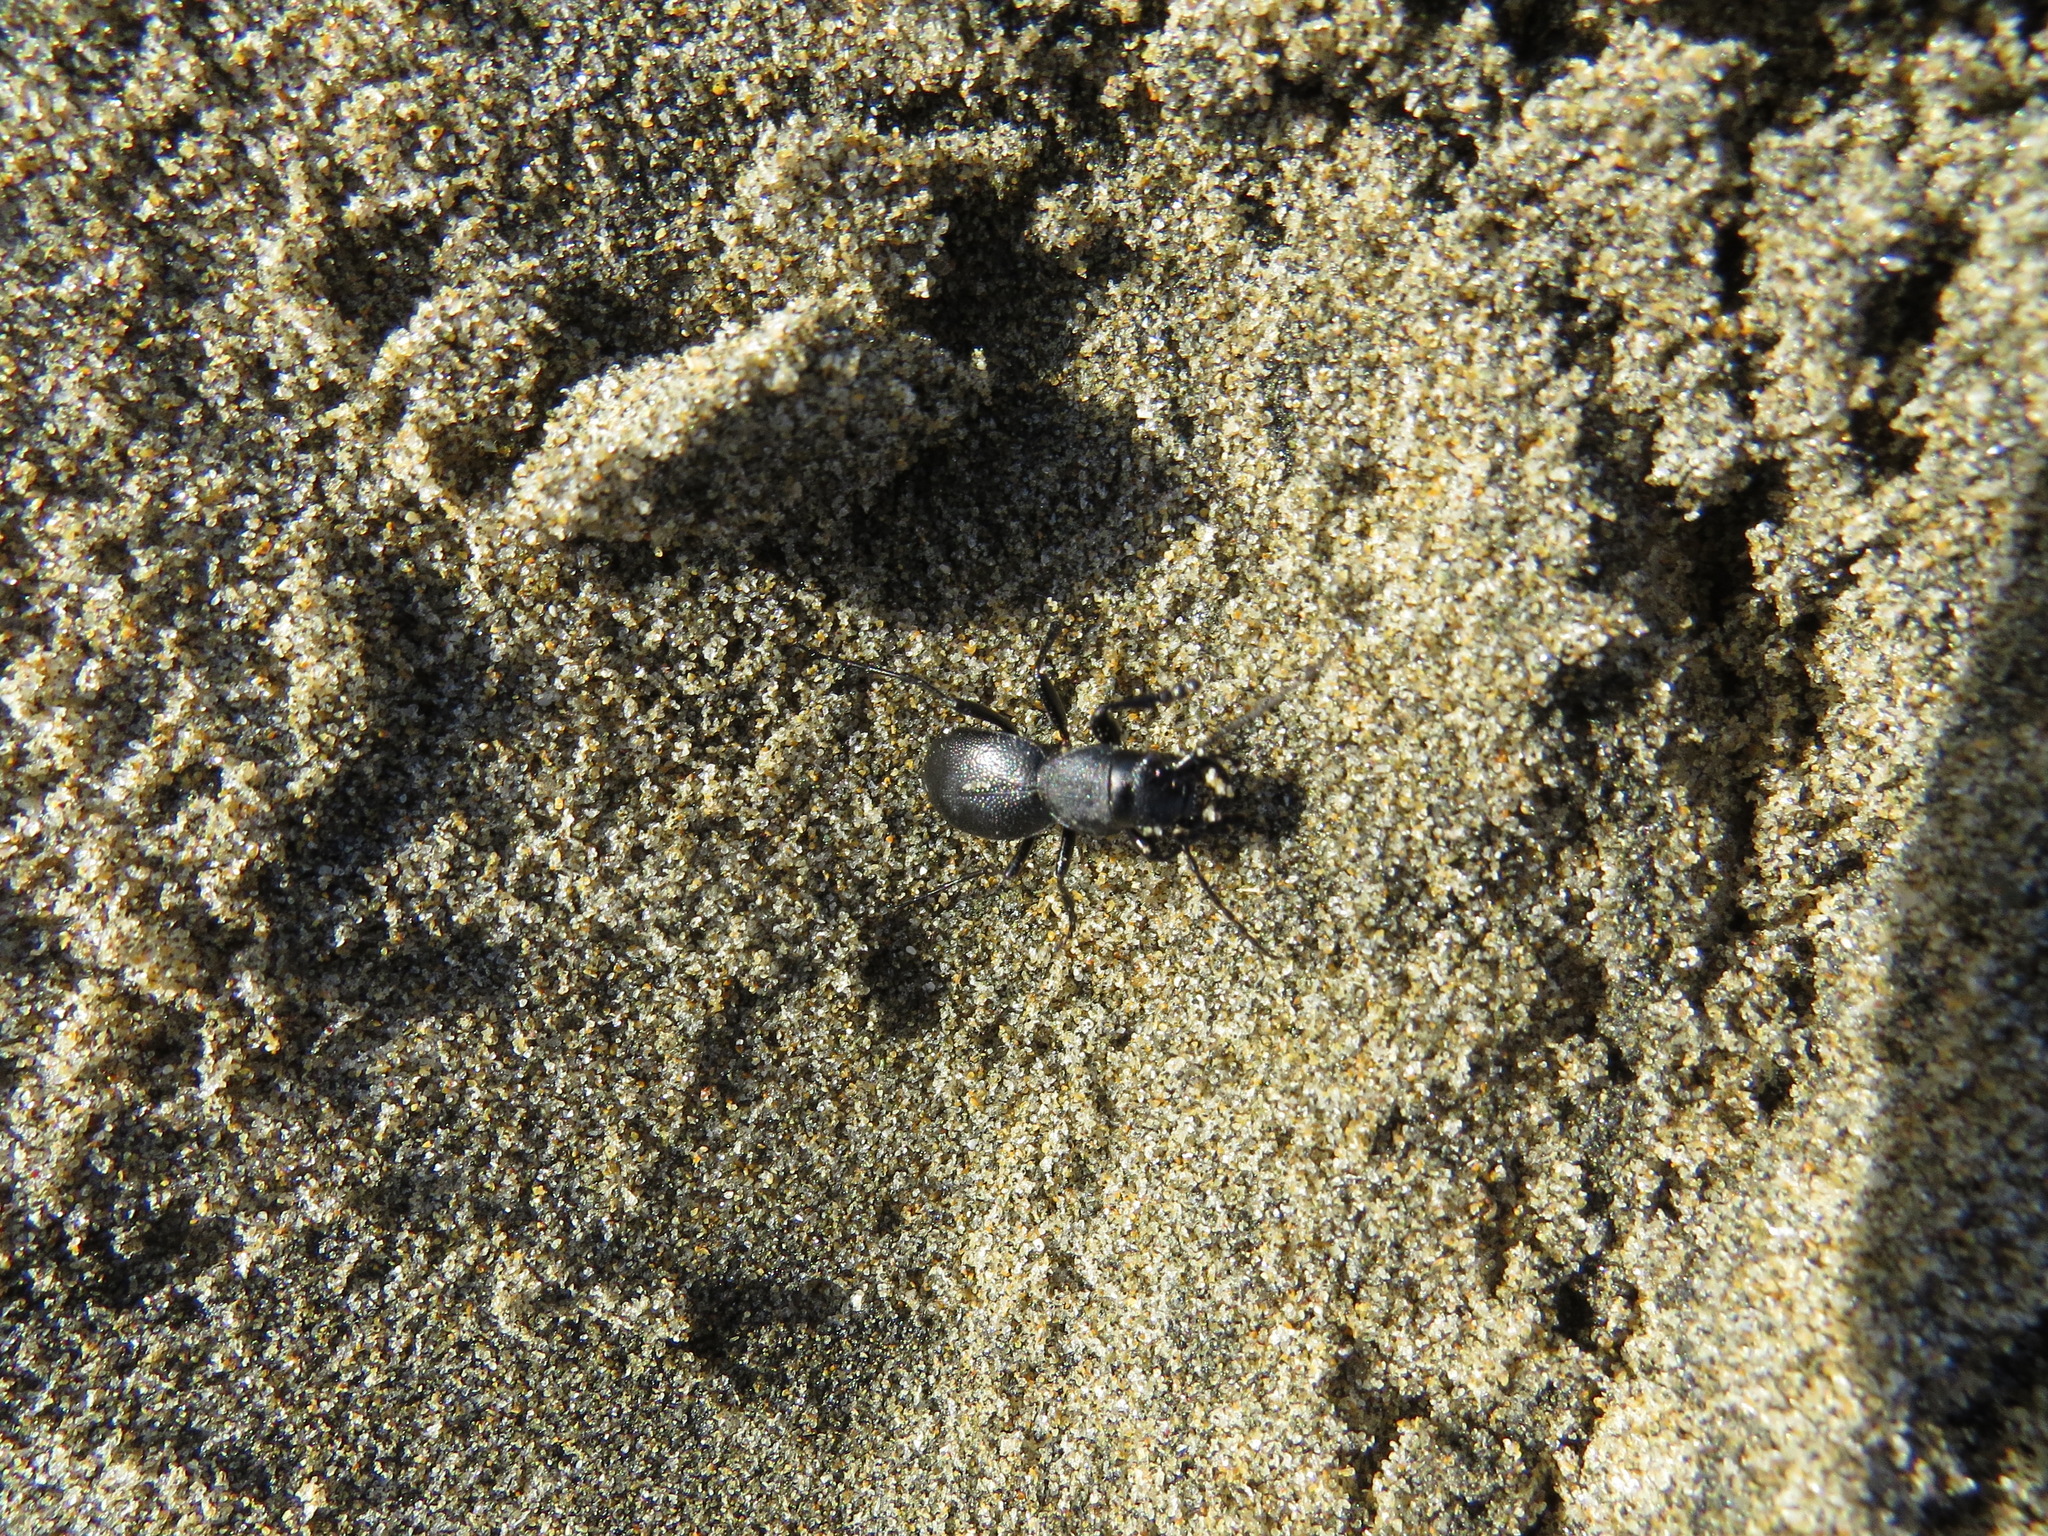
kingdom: Animalia
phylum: Arthropoda
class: Insecta
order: Coleoptera
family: Carabidae
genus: Omus
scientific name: Omus californicus
